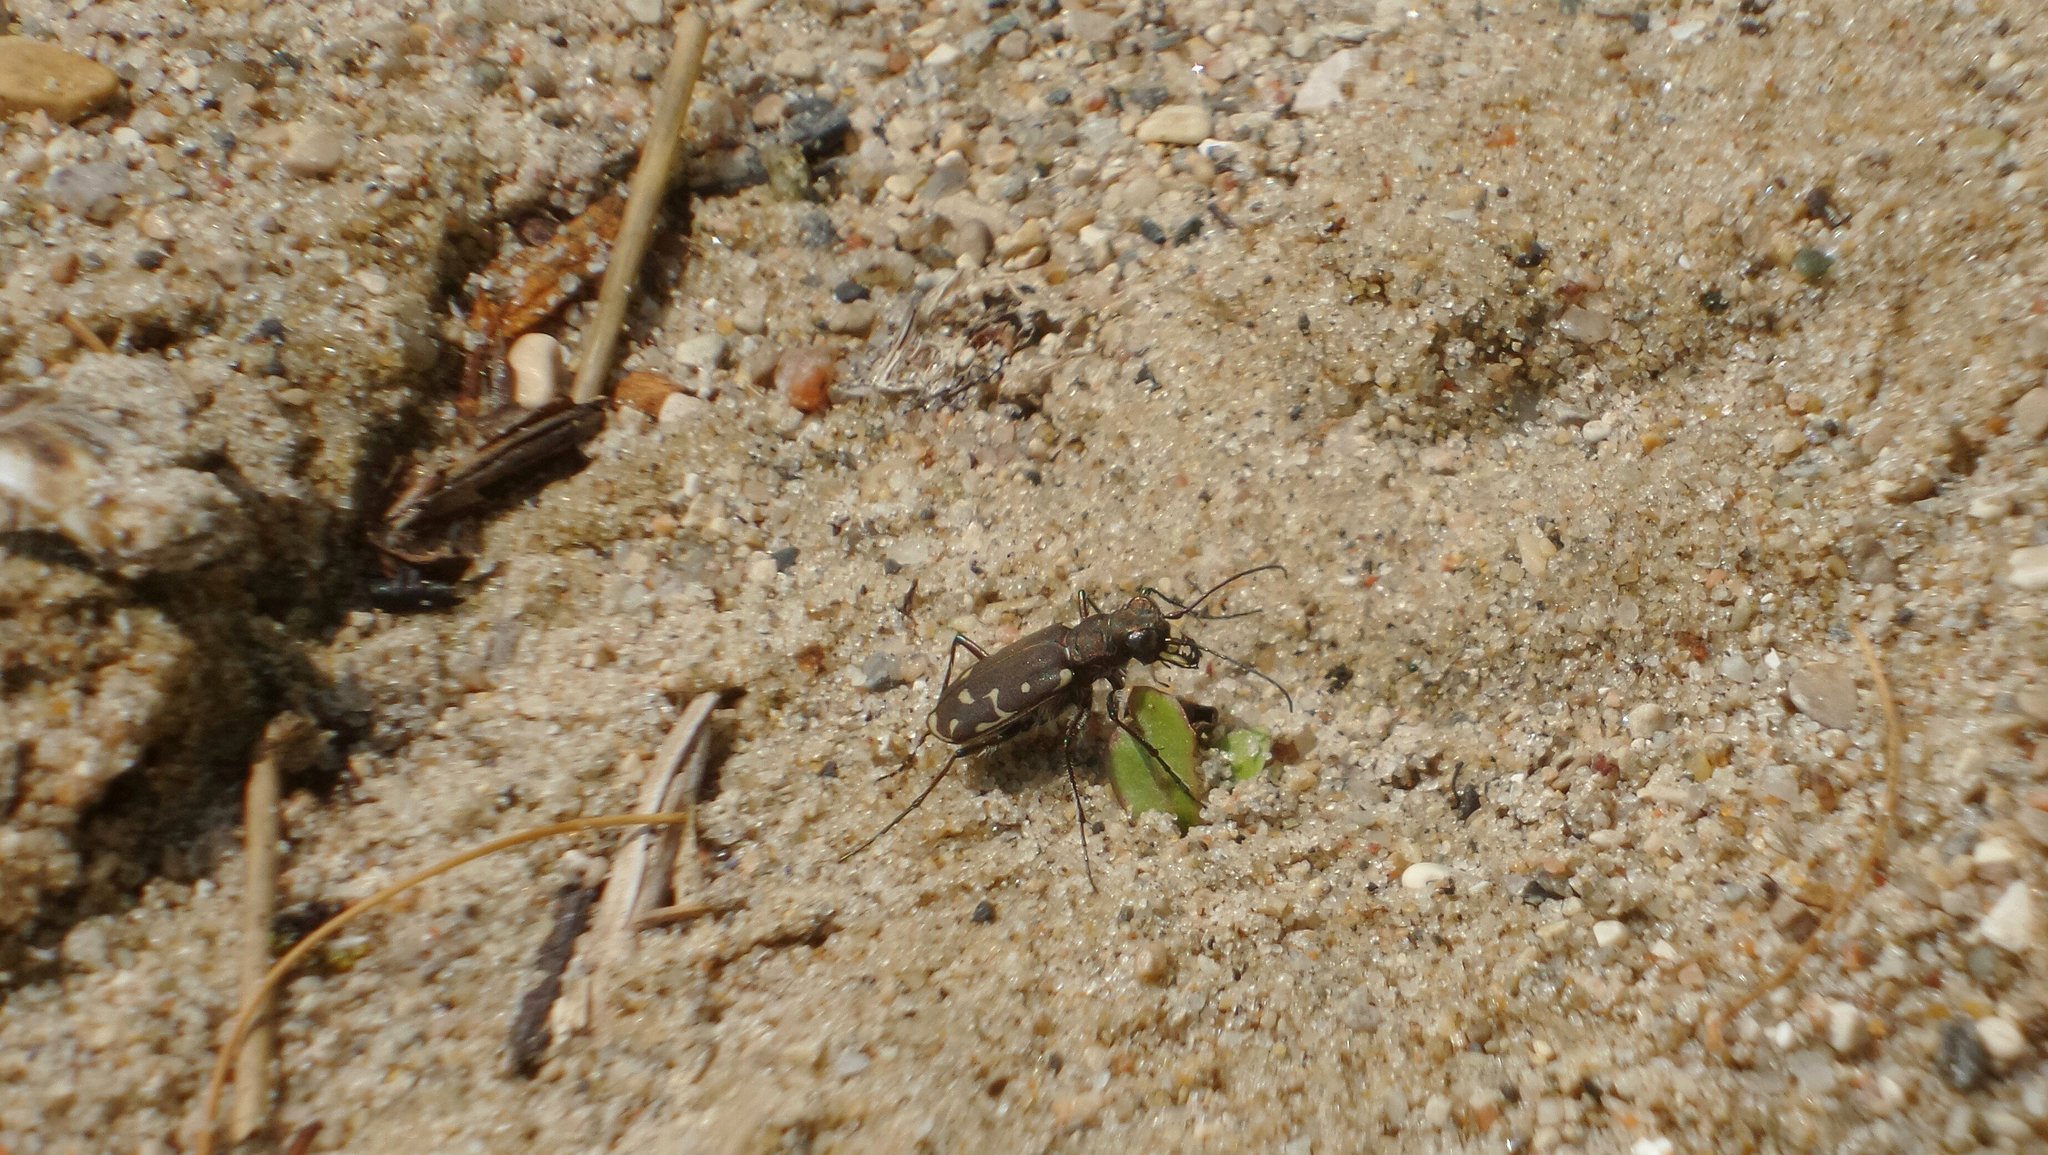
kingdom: Animalia
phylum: Arthropoda
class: Insecta
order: Coleoptera
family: Carabidae
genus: Cicindela
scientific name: Cicindela duodecimguttata
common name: Twelve-spotted tiger beetle
